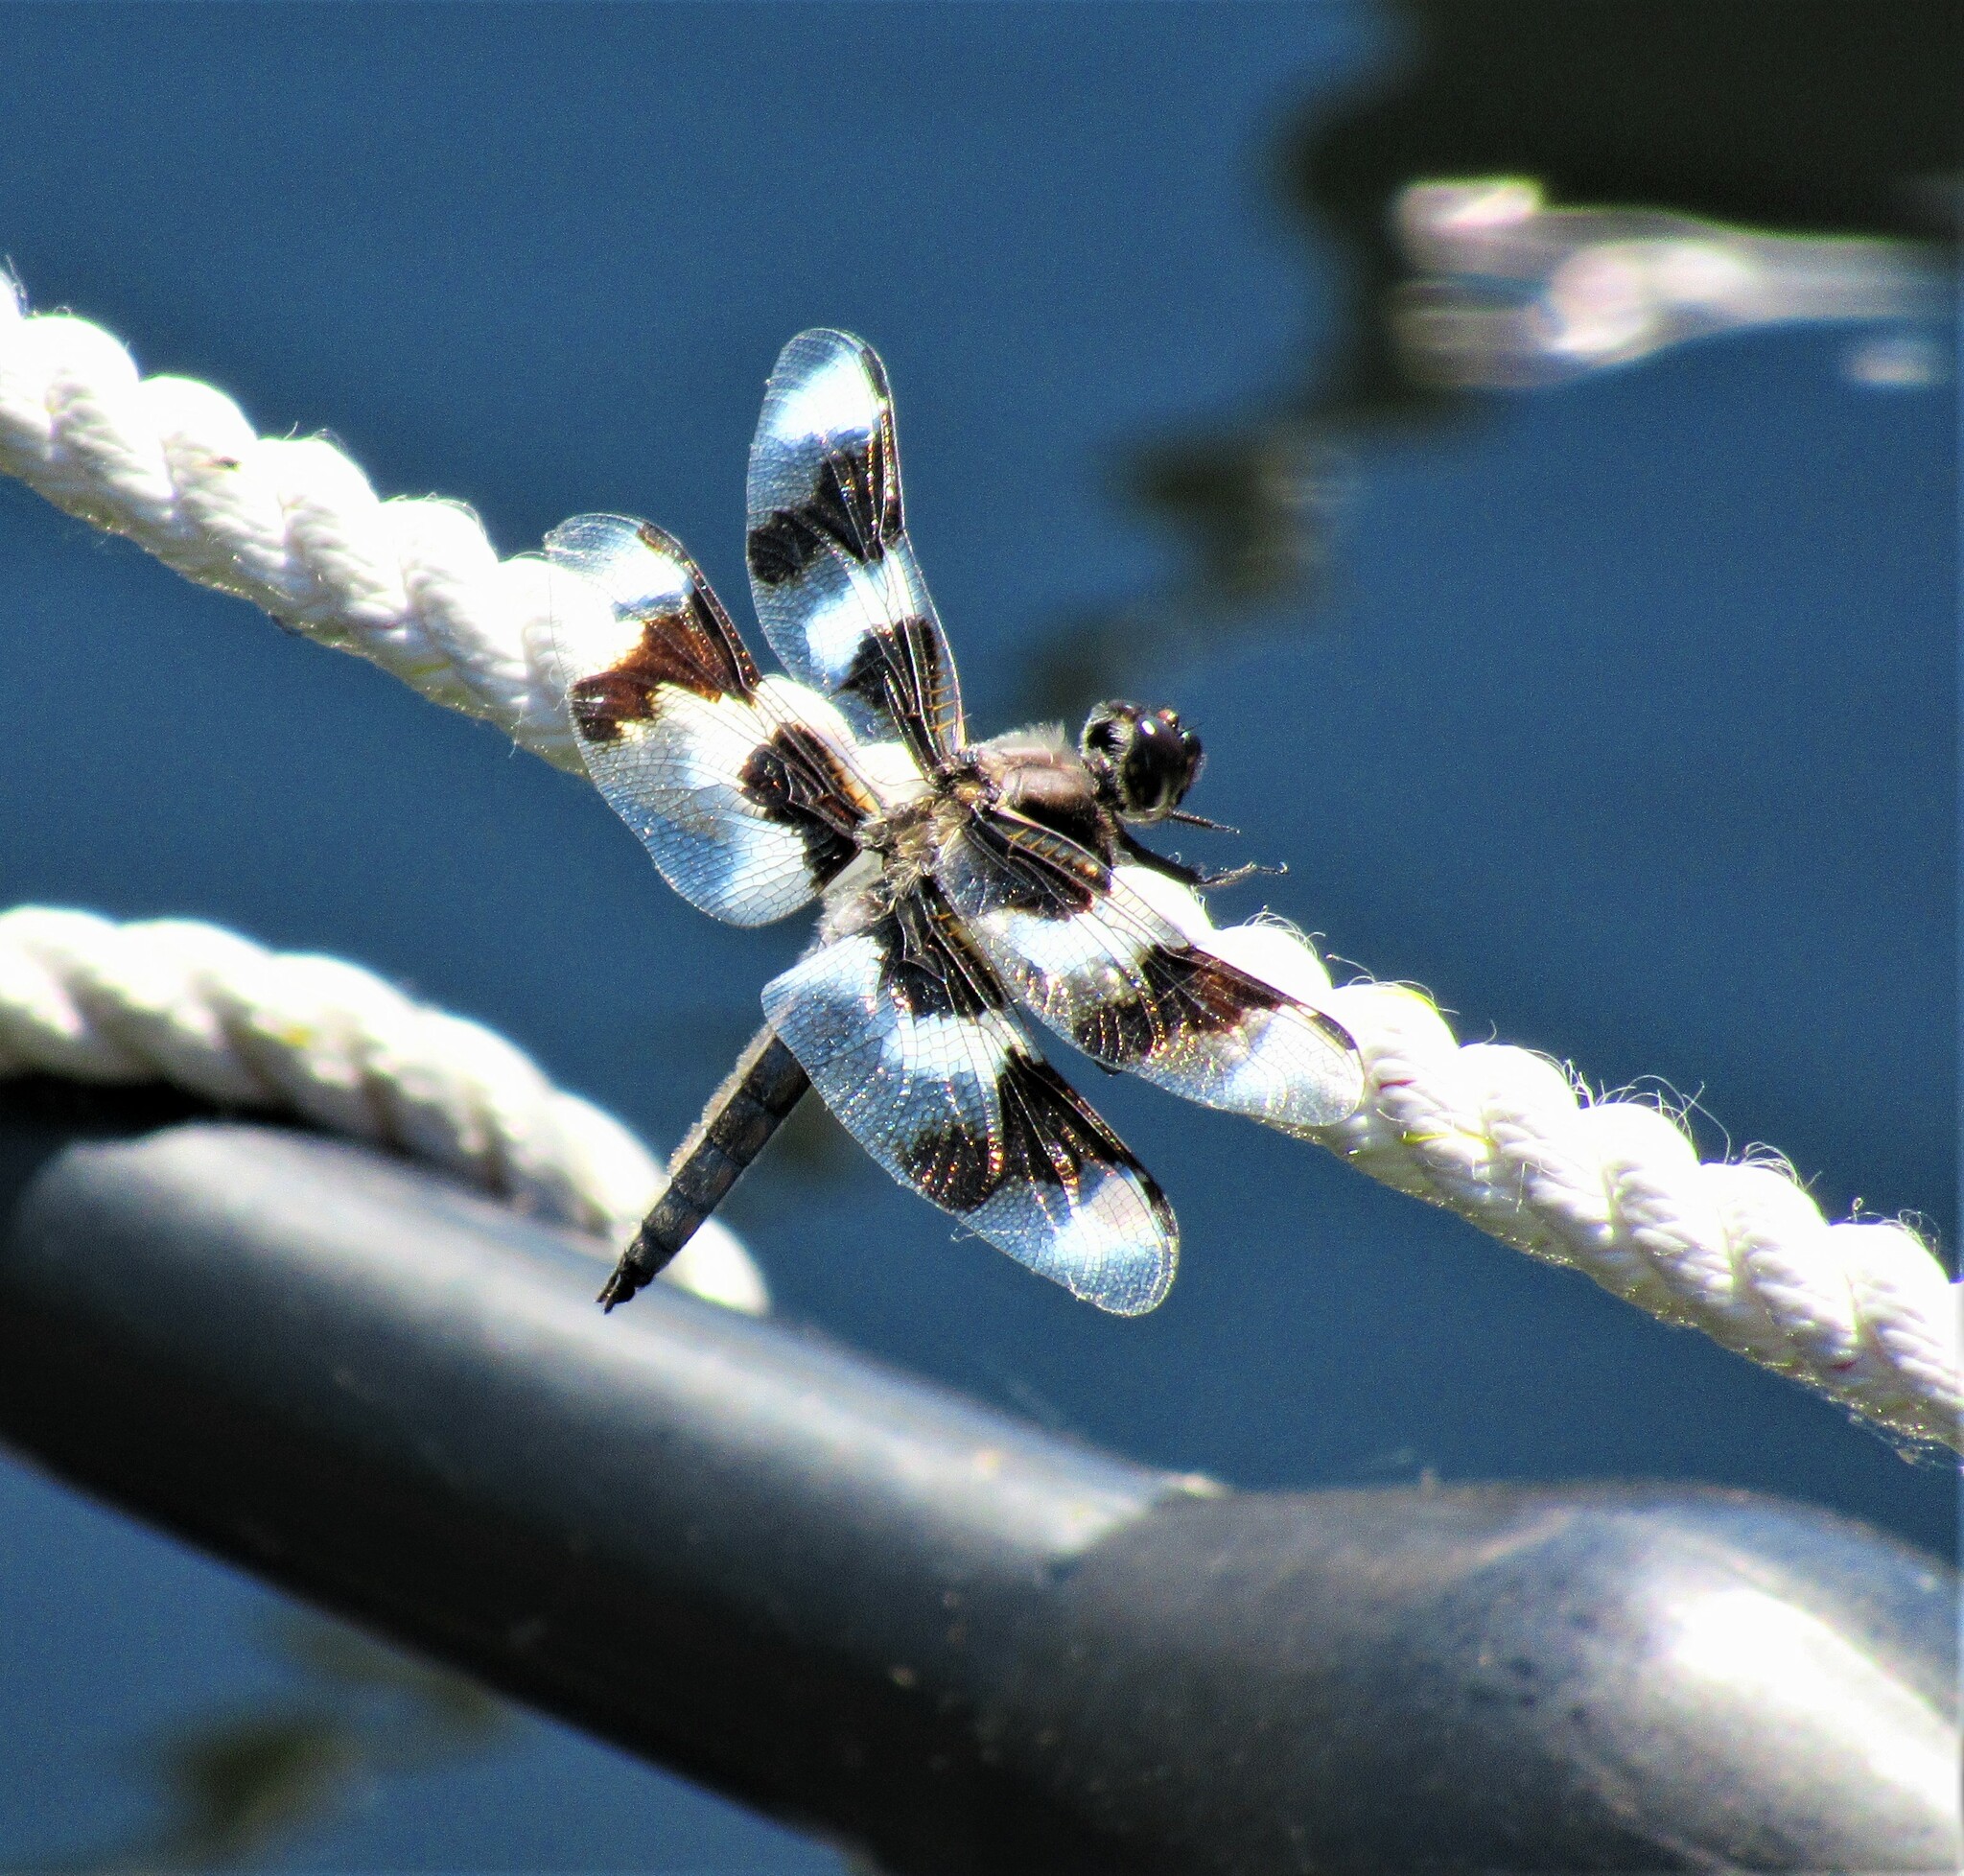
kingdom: Animalia
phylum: Arthropoda
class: Insecta
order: Odonata
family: Libellulidae
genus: Libellula
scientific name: Libellula forensis
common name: Eight-spotted skimmer
